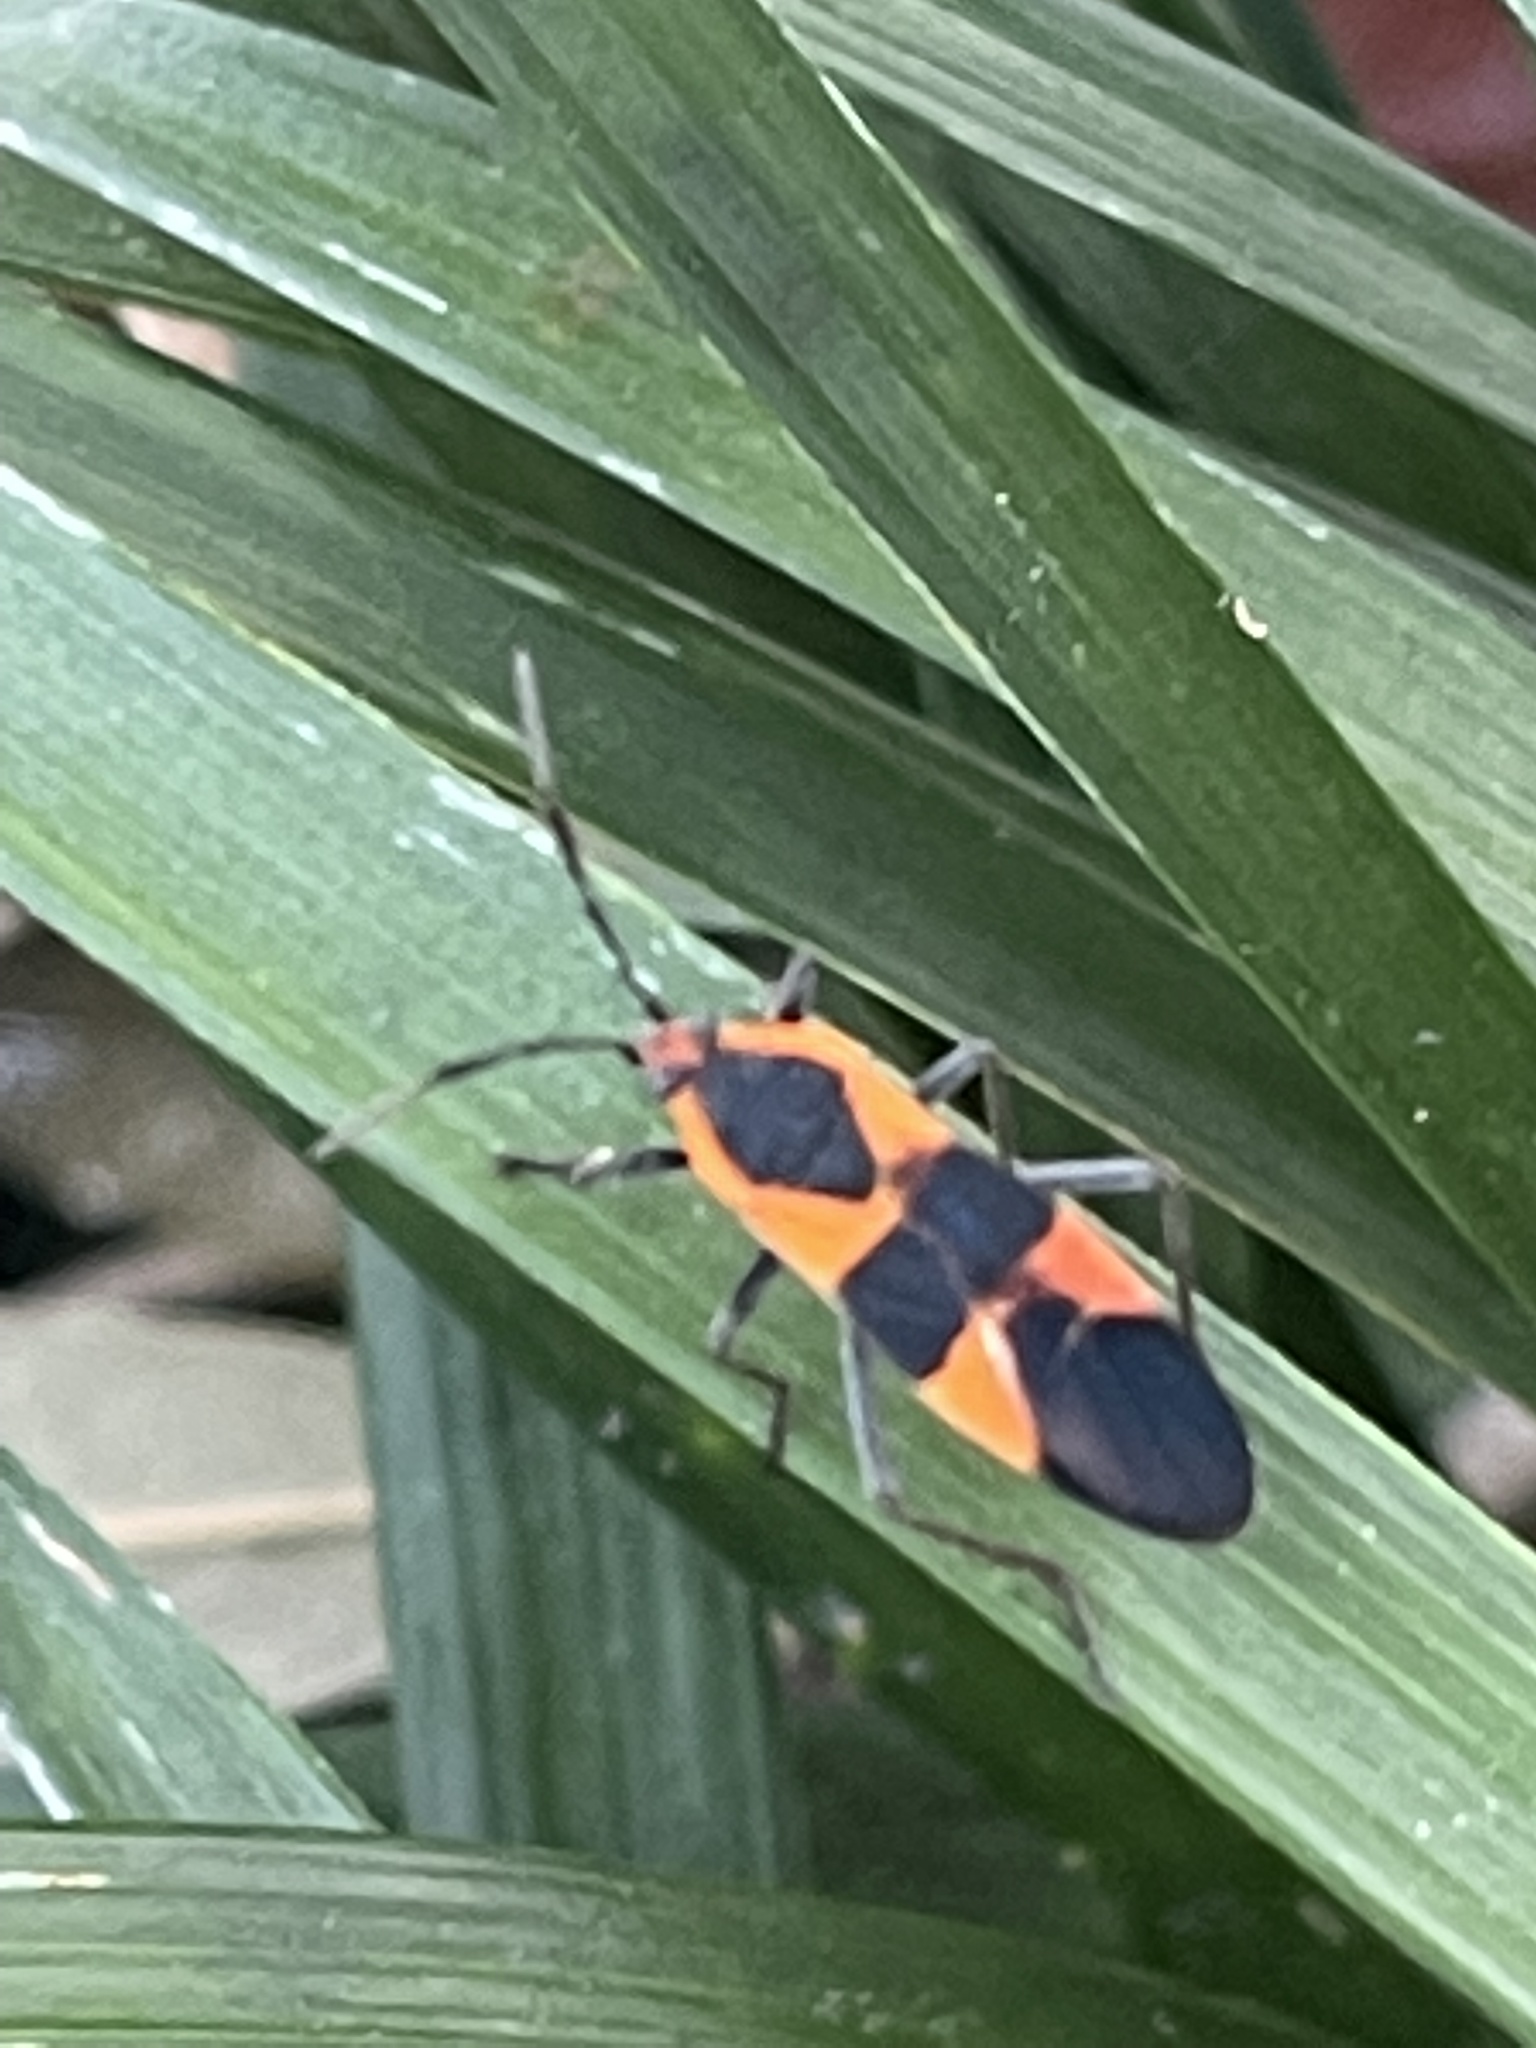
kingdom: Animalia
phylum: Arthropoda
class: Insecta
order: Hemiptera
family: Lygaeidae
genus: Oncopeltus
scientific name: Oncopeltus fasciatus
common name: Large milkweed bug
